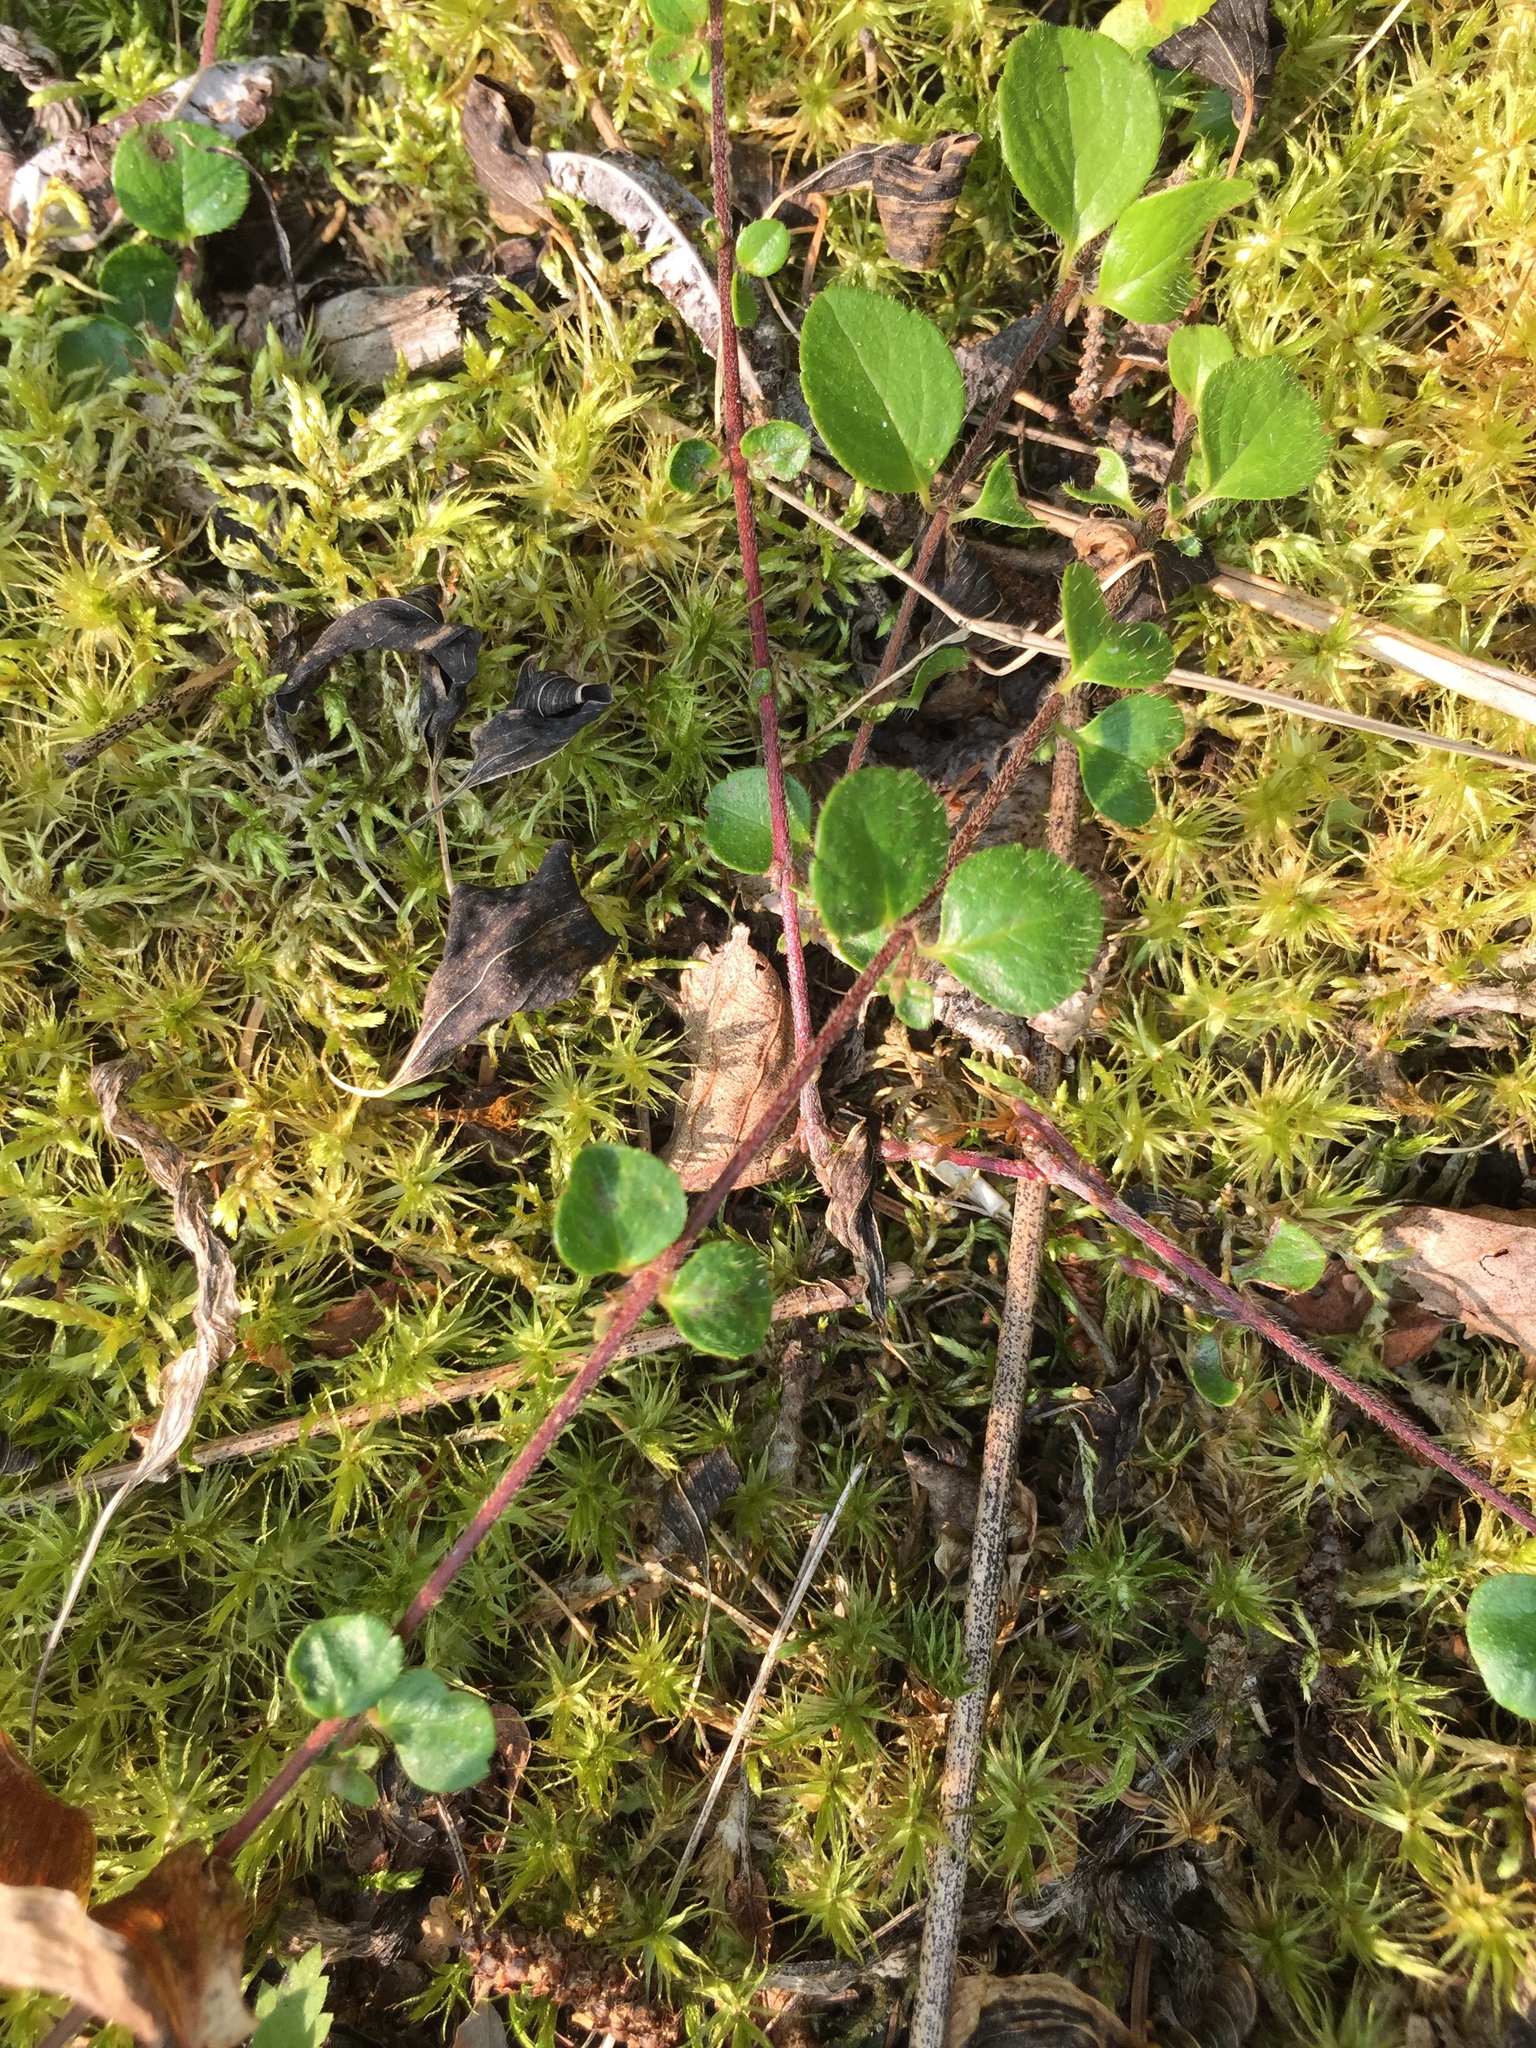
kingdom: Plantae
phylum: Tracheophyta
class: Magnoliopsida
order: Dipsacales
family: Caprifoliaceae
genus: Linnaea
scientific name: Linnaea borealis
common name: Twinflower
